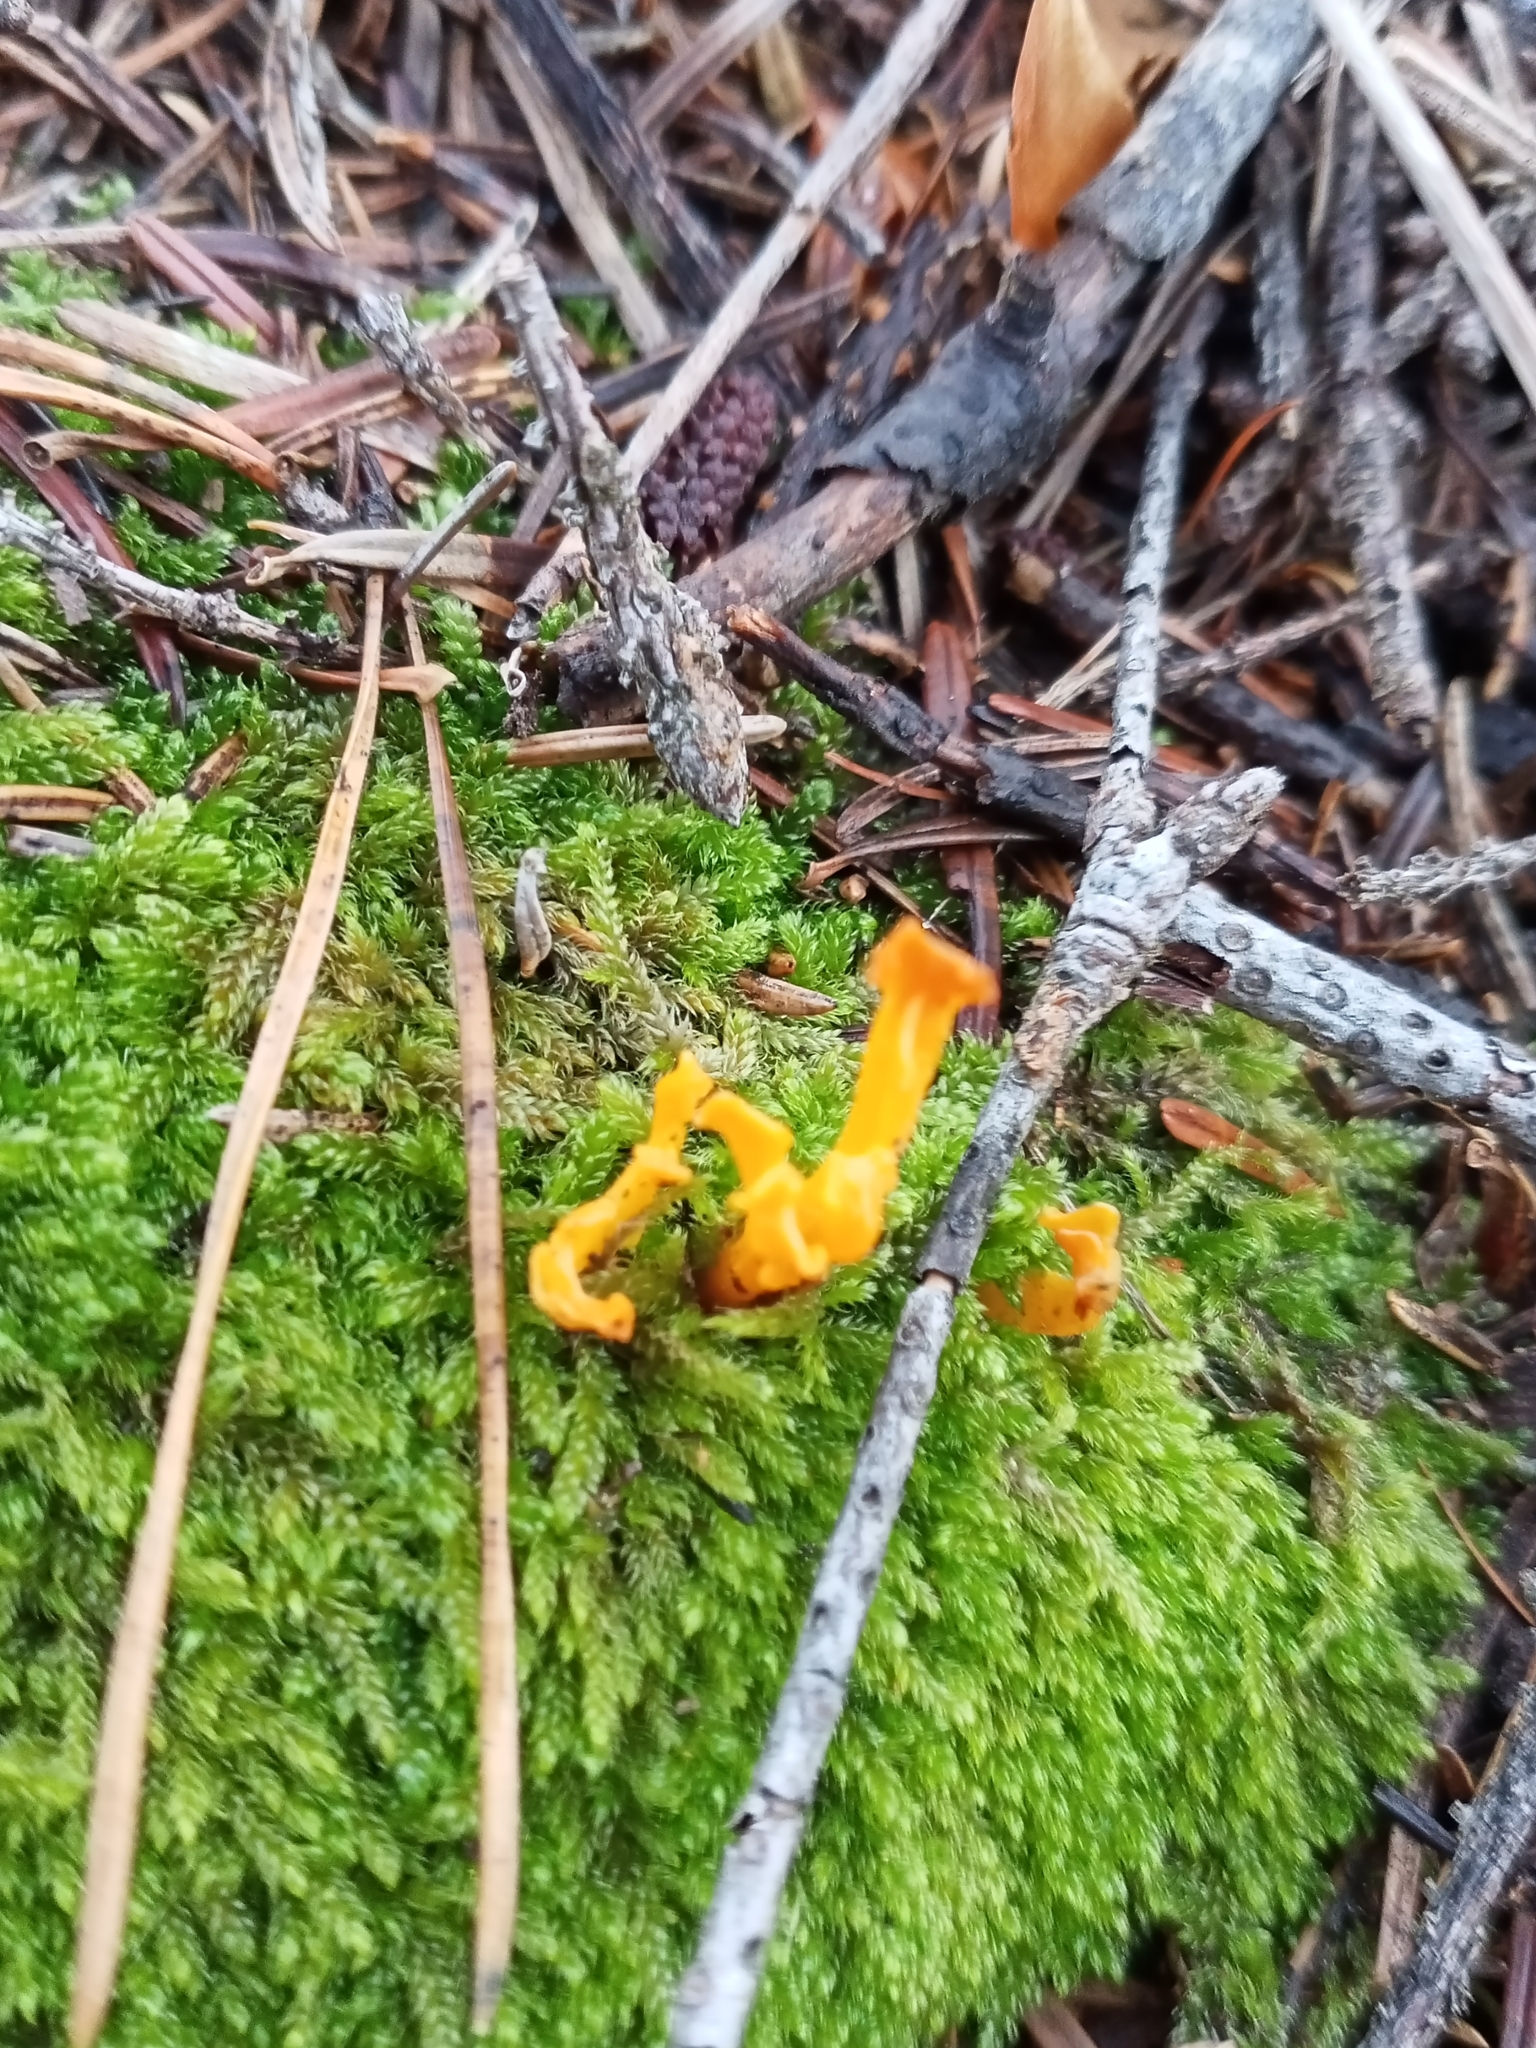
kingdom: Fungi
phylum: Basidiomycota
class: Dacrymycetes
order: Dacrymycetales
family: Dacrymycetaceae
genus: Calocera
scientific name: Calocera viscosa
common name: Yellow stagshorn
